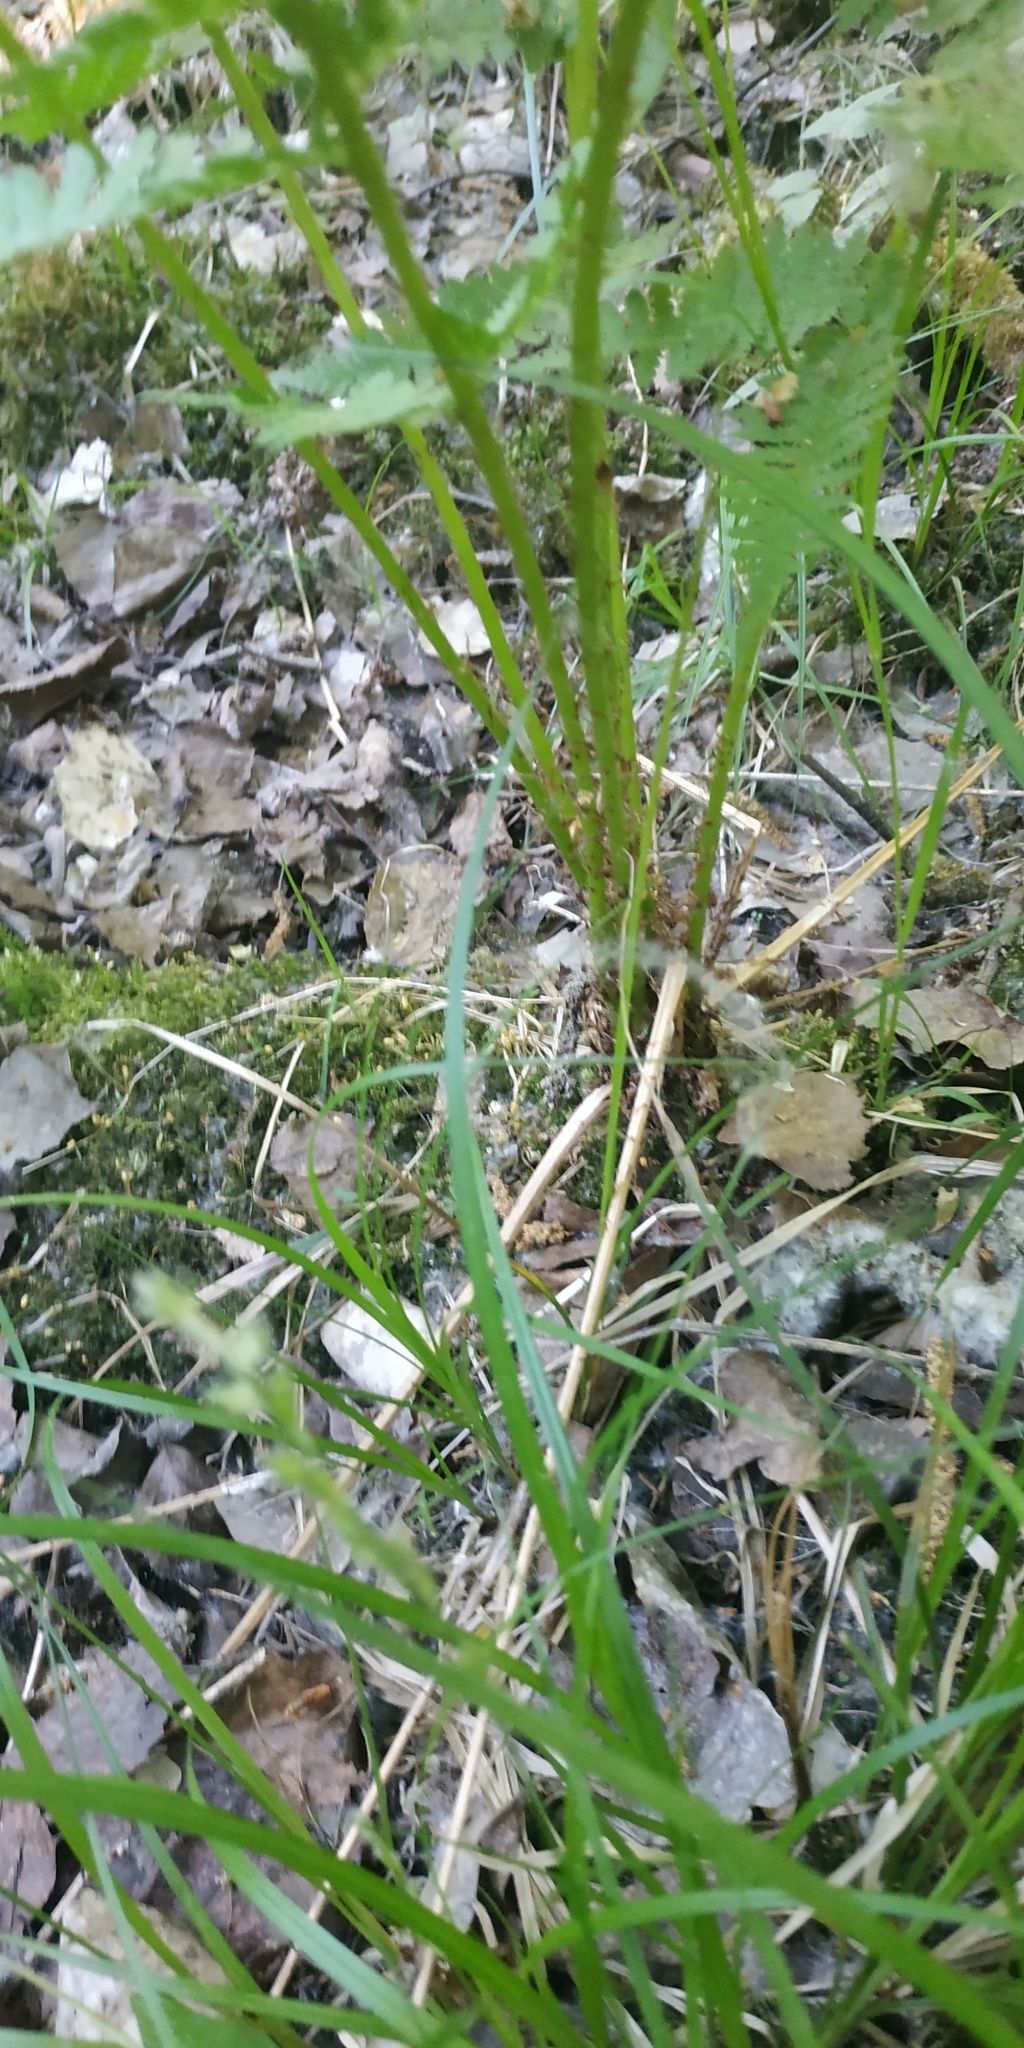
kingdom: Plantae
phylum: Tracheophyta
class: Polypodiopsida
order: Polypodiales
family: Athyriaceae
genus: Athyrium
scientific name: Athyrium filix-femina
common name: Lady fern
